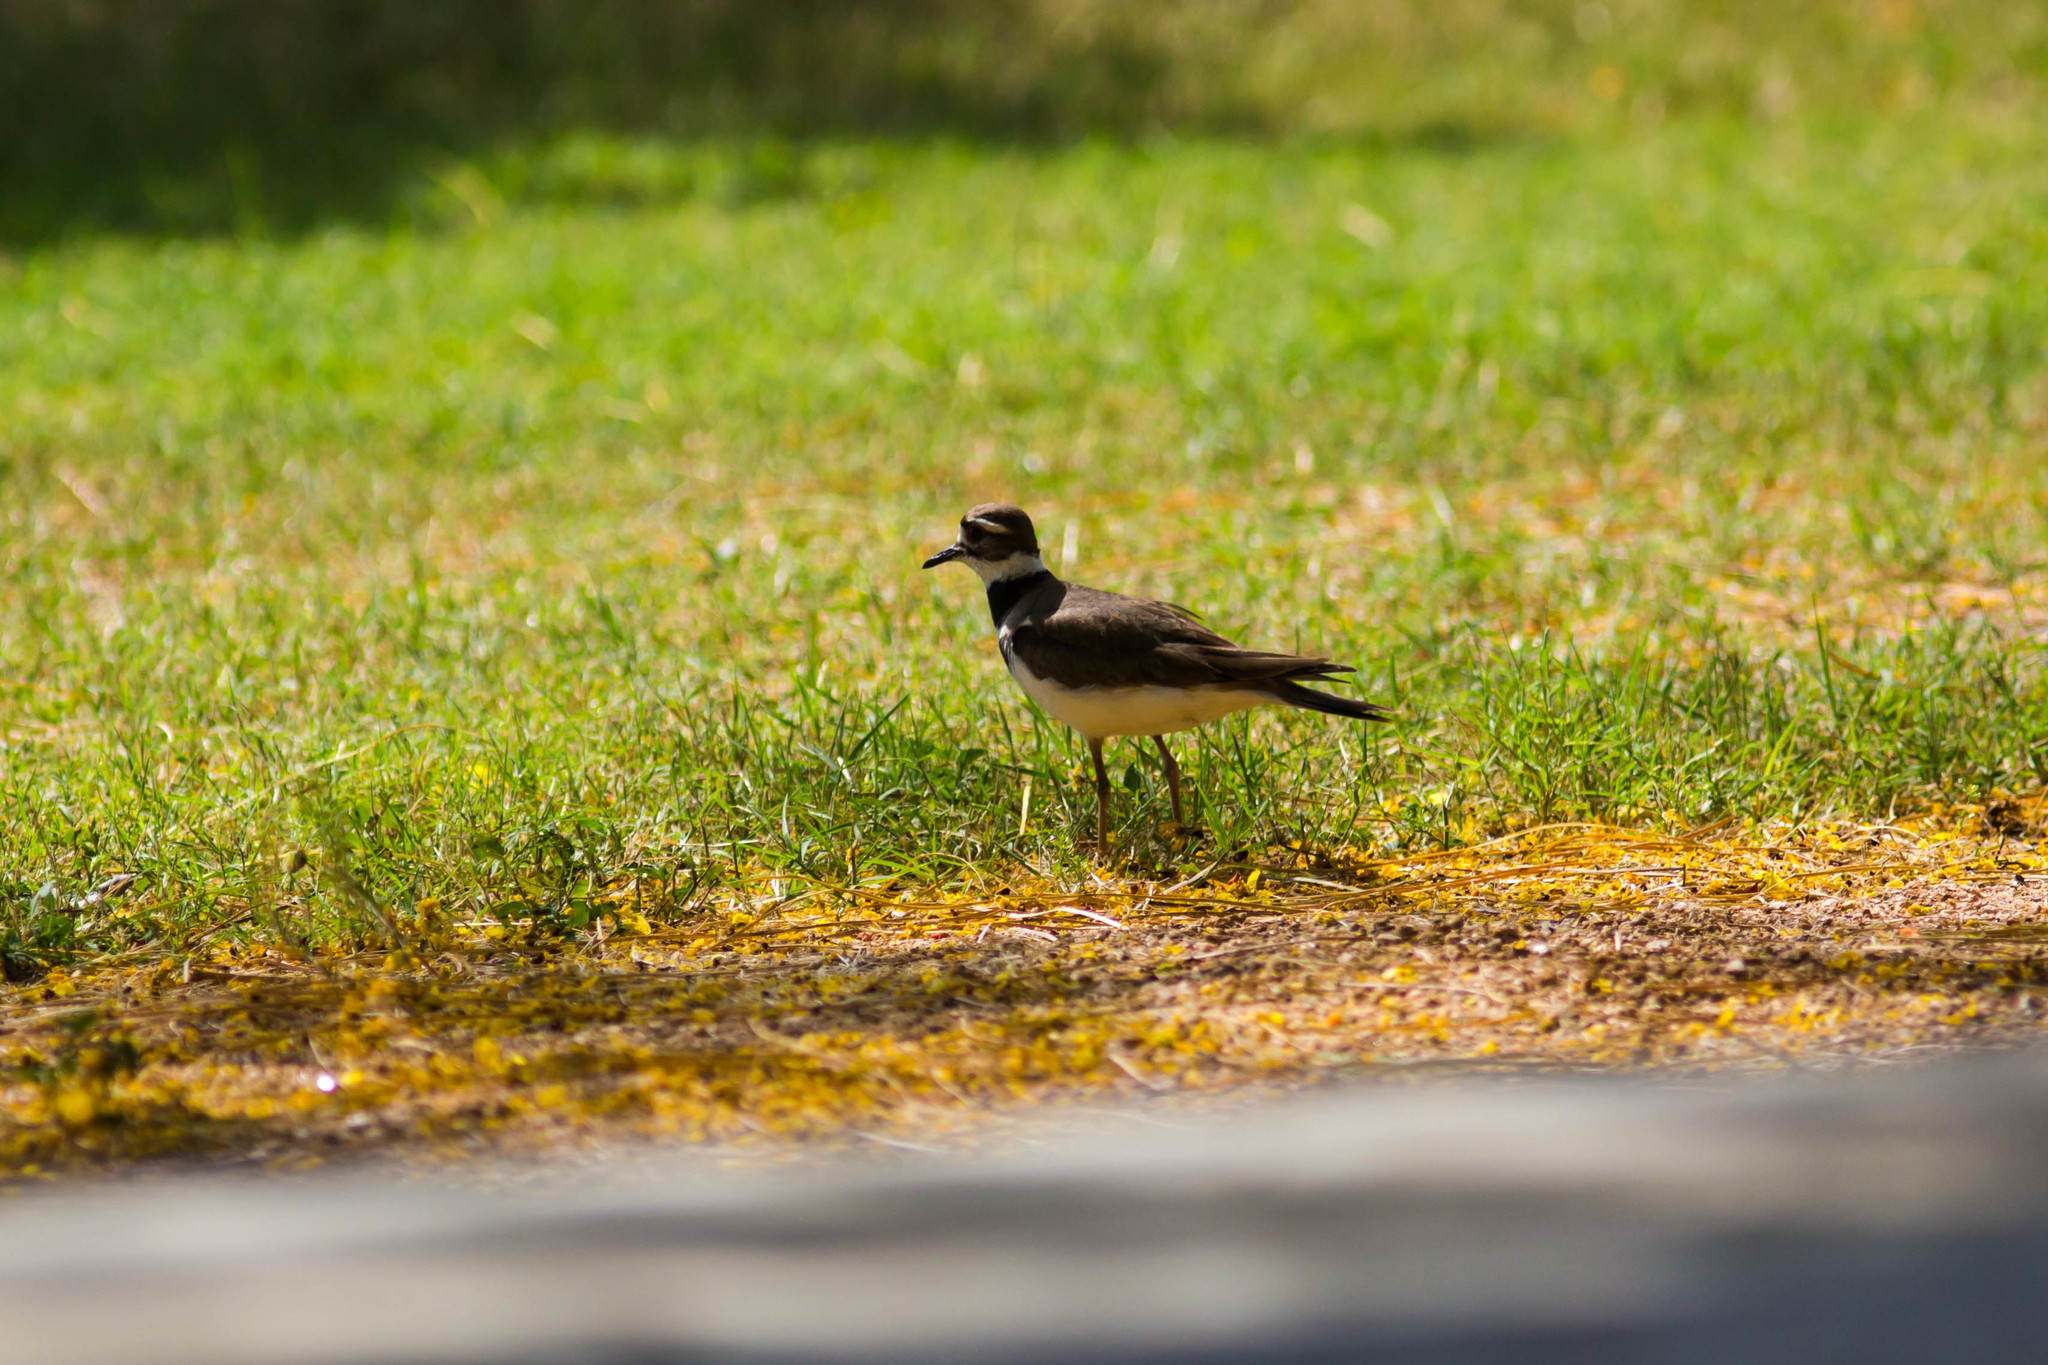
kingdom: Animalia
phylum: Chordata
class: Aves
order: Charadriiformes
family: Charadriidae
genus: Charadrius
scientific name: Charadrius vociferus
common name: Killdeer
